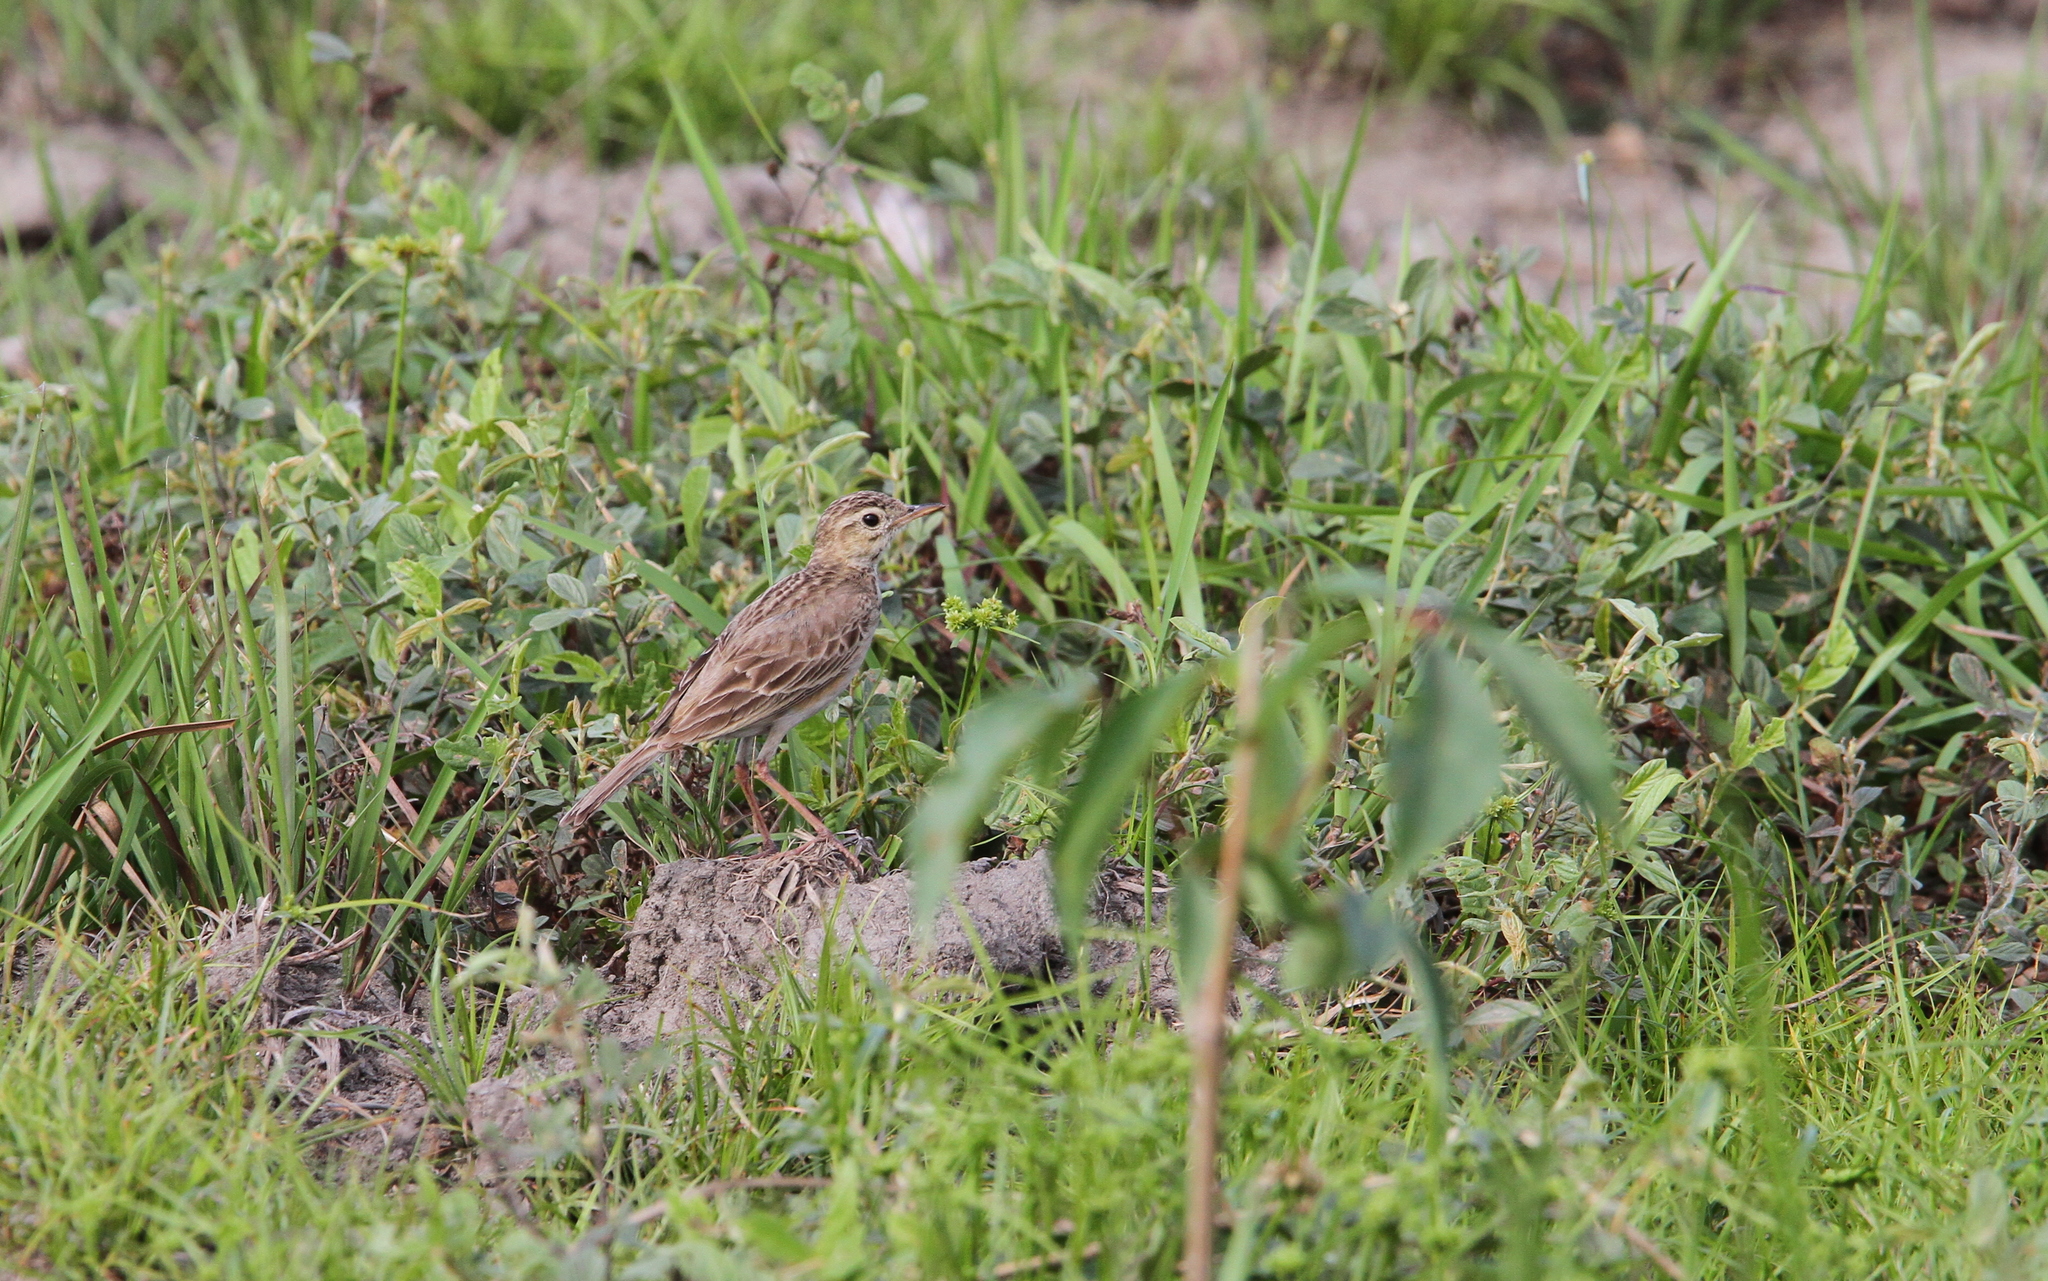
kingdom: Animalia
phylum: Chordata
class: Aves
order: Passeriformes
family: Motacillidae
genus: Anthus
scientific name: Anthus rufulus
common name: Paddyfield pipit
